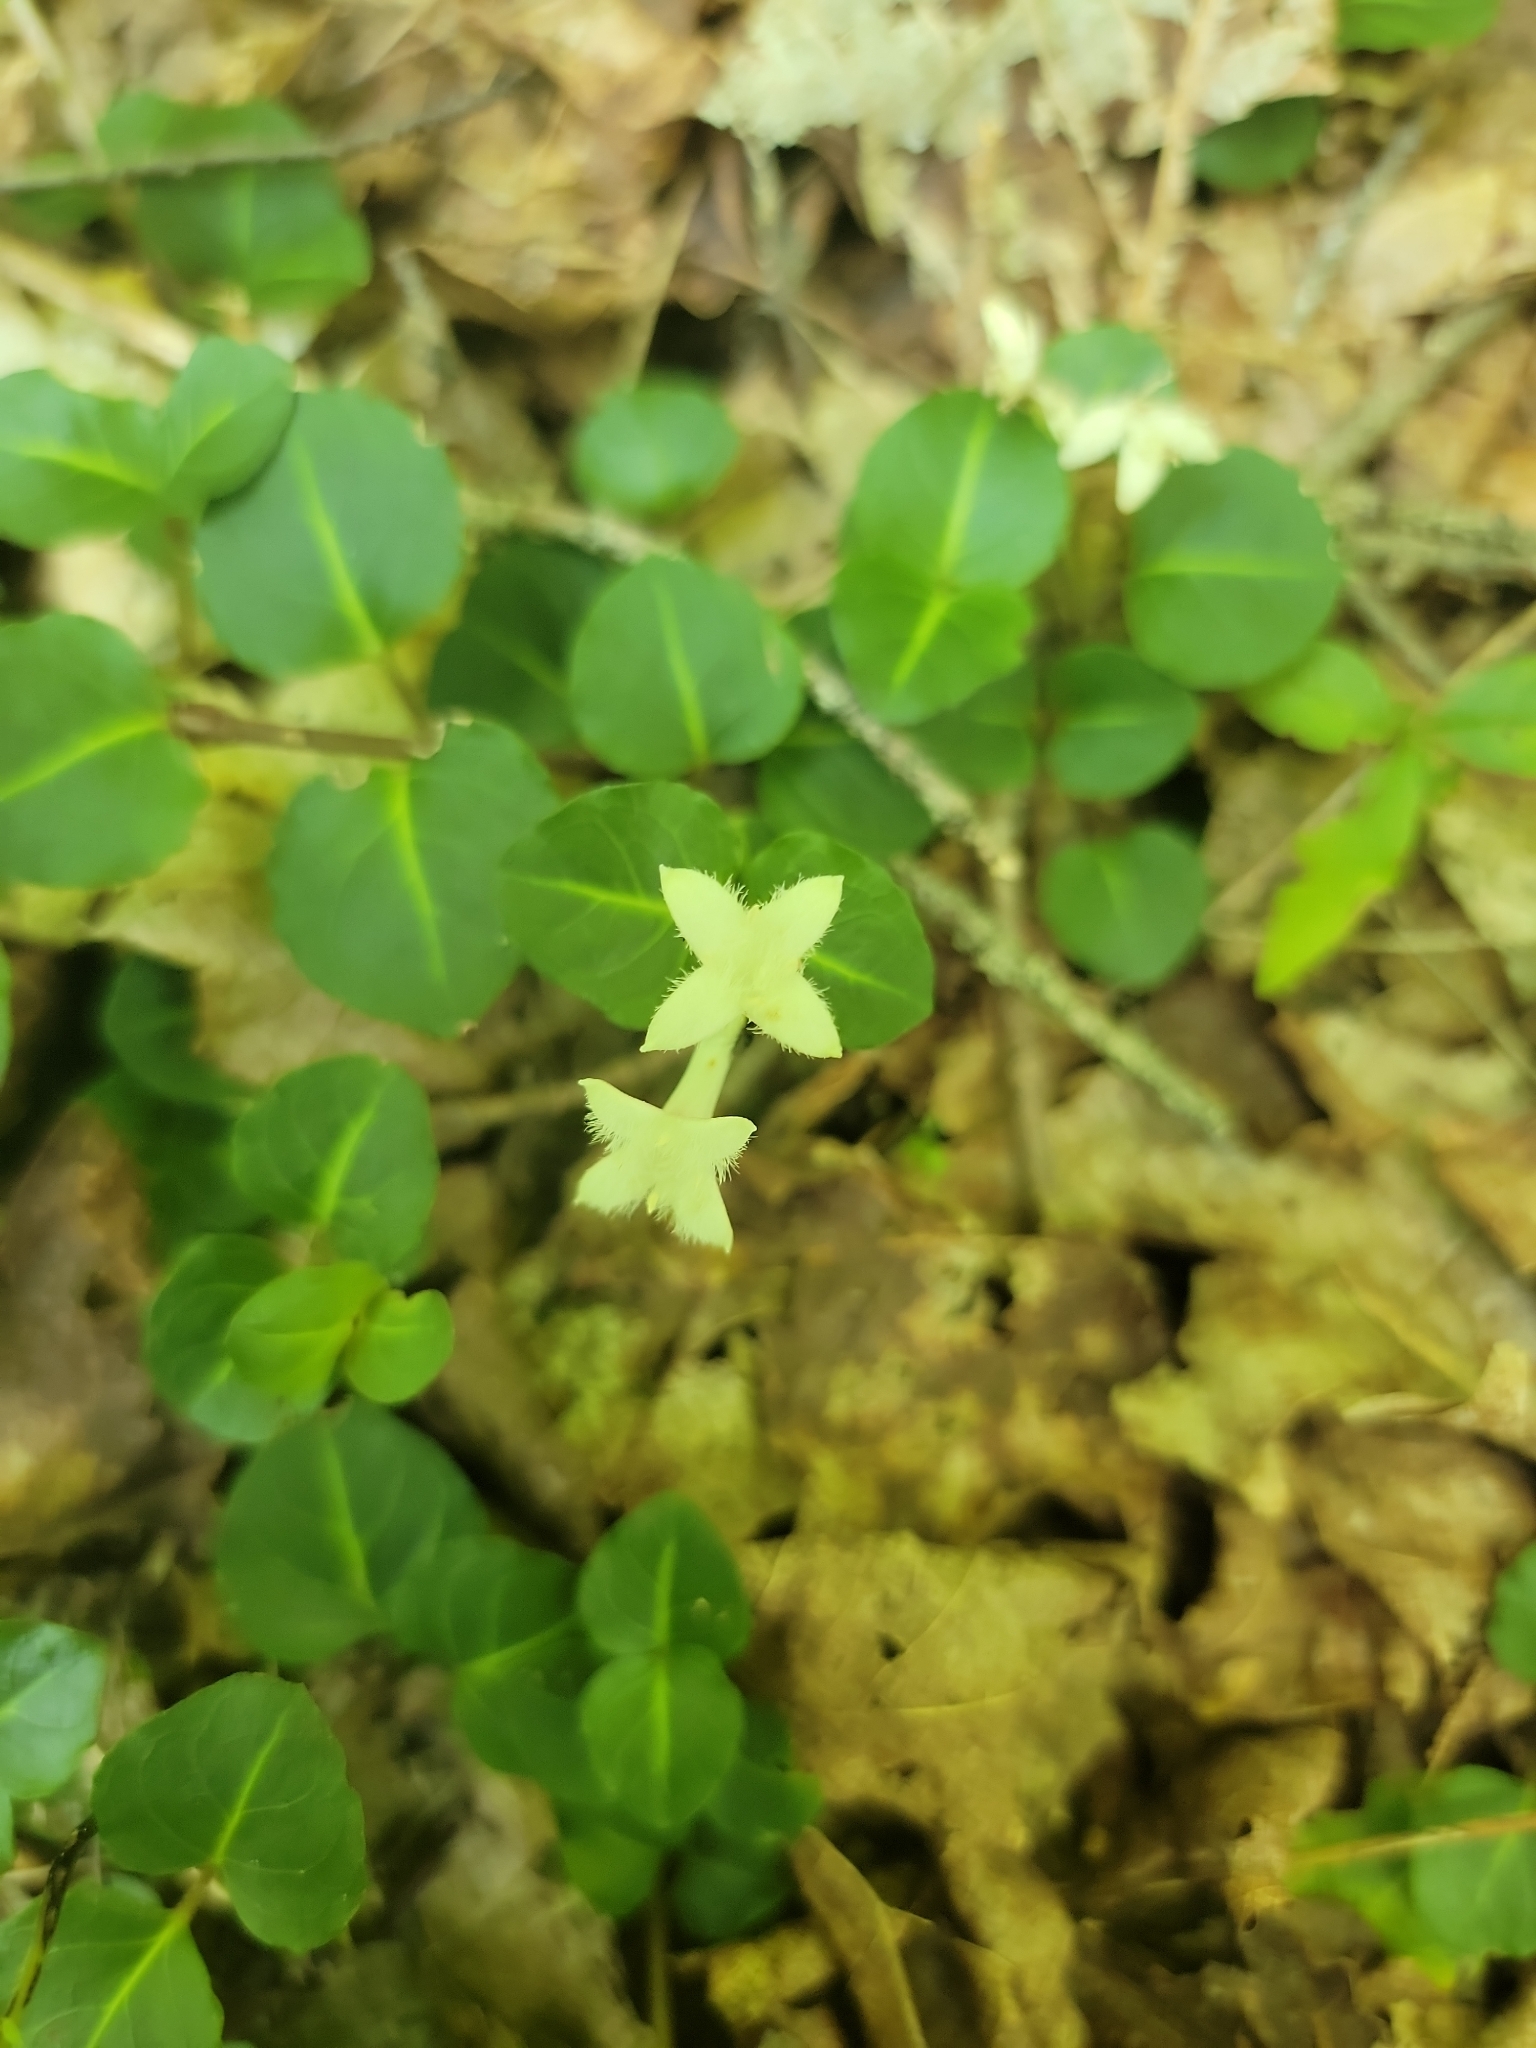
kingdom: Plantae
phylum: Tracheophyta
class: Magnoliopsida
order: Gentianales
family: Rubiaceae
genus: Mitchella
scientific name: Mitchella repens
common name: Partridge-berry
